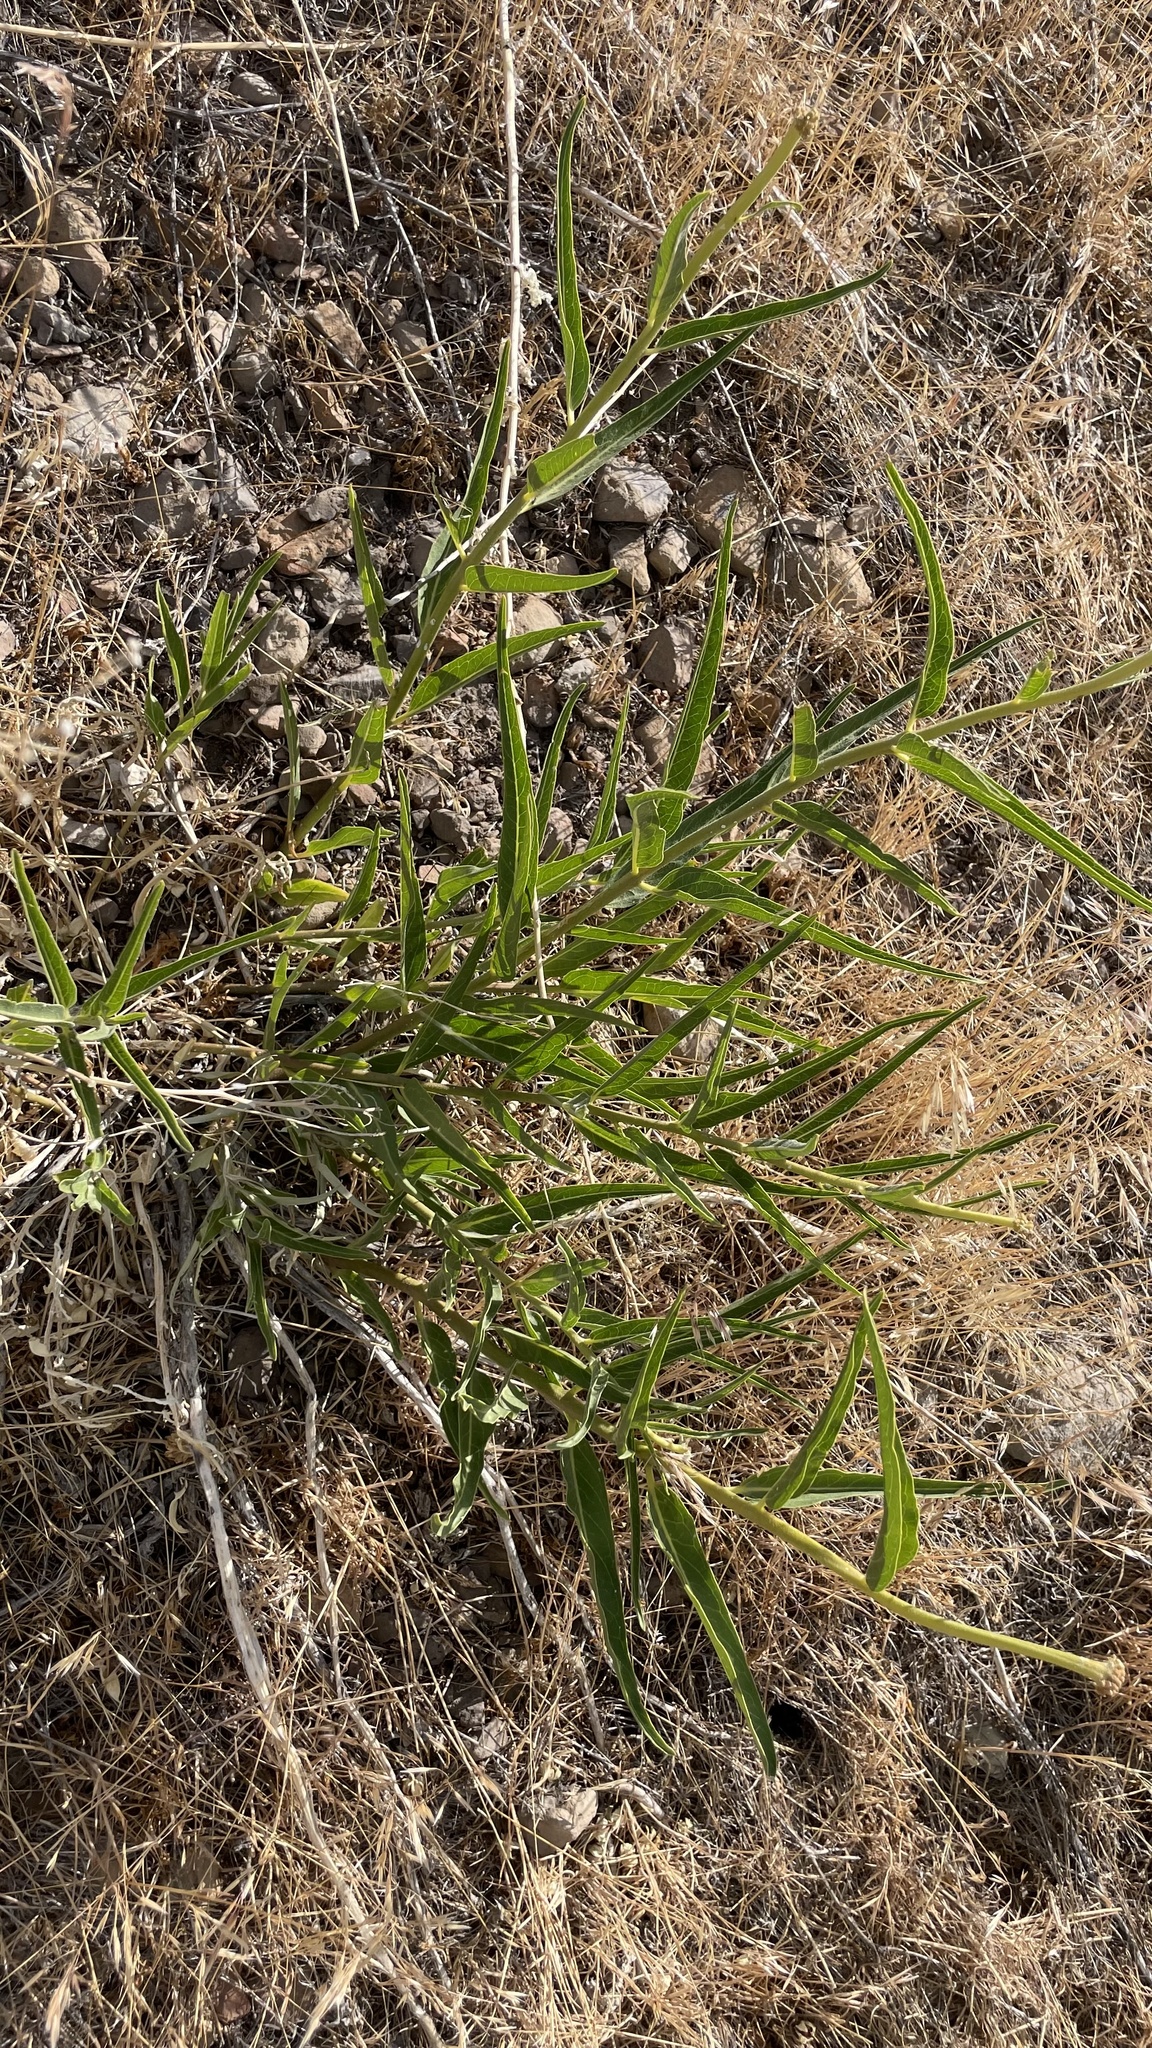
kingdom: Plantae
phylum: Tracheophyta
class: Magnoliopsida
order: Gentianales
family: Apocynaceae
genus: Asclepias
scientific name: Asclepias asperula
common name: Antelope horns
